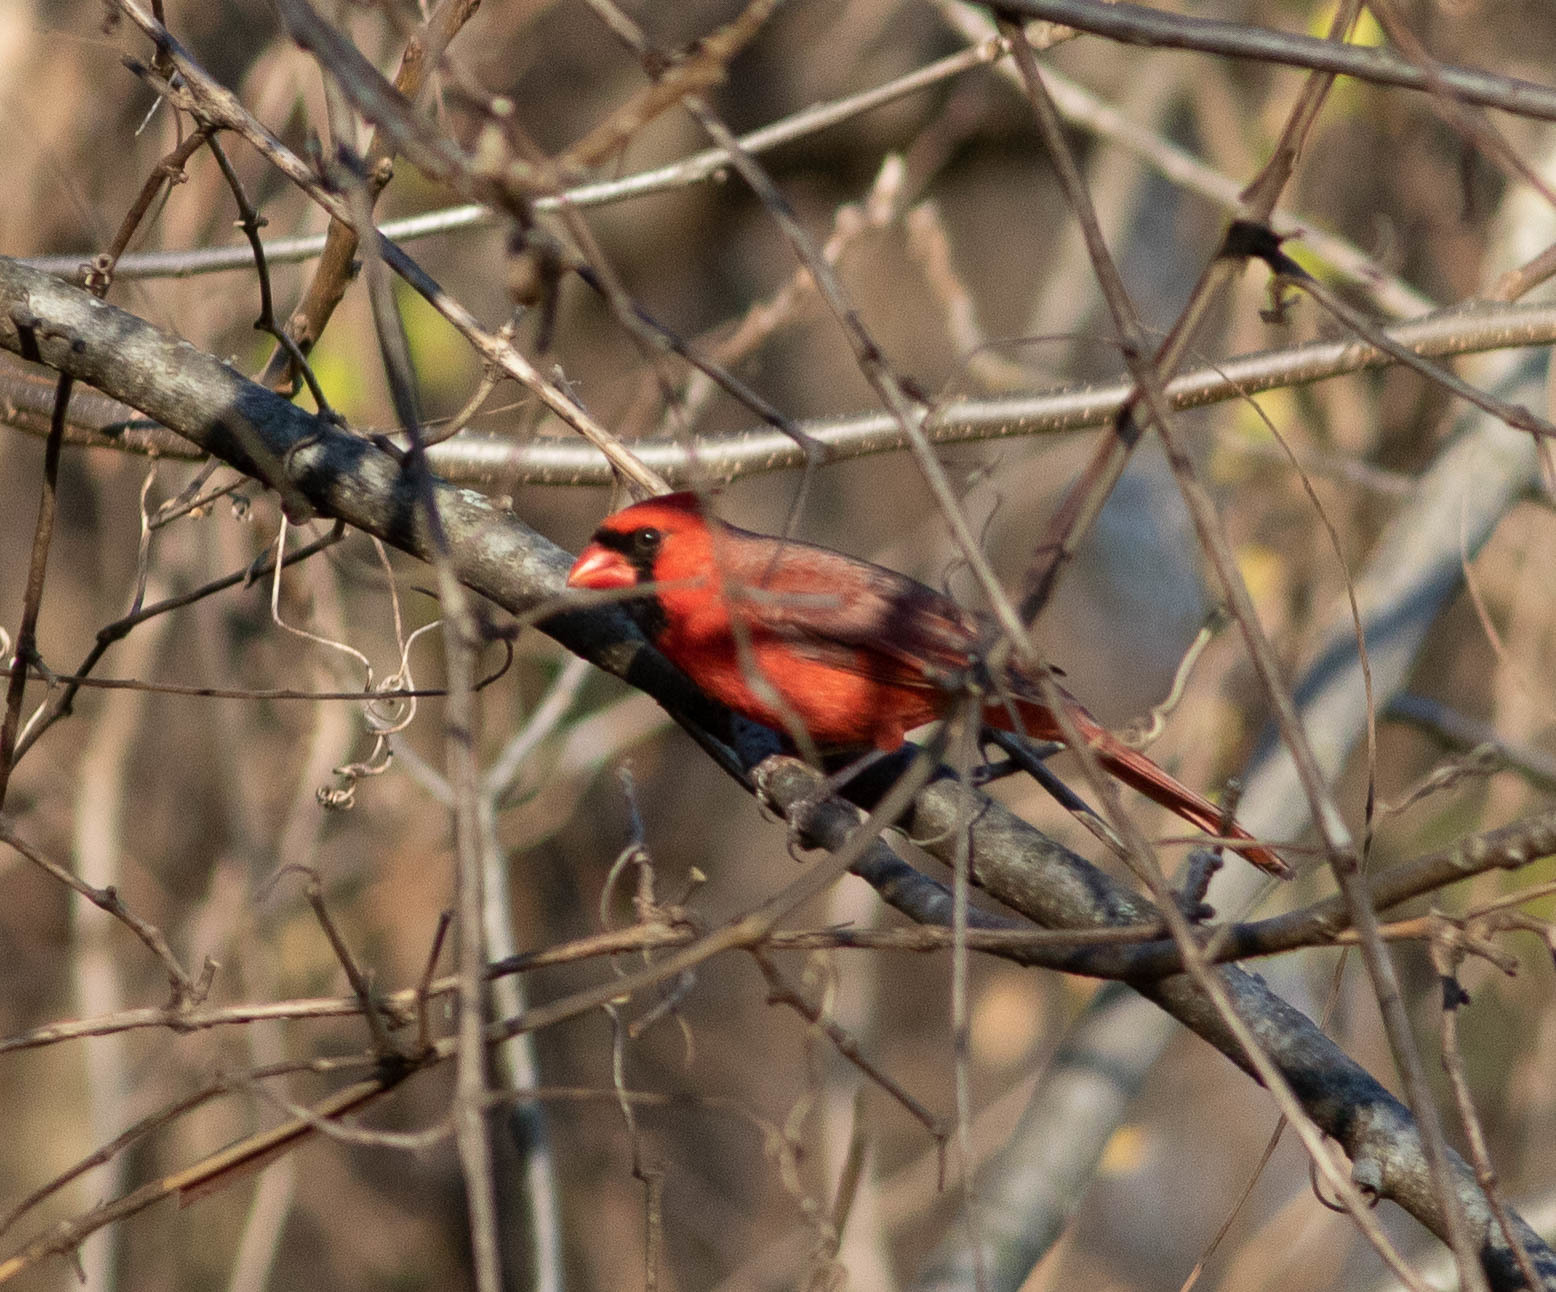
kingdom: Animalia
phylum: Chordata
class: Aves
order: Passeriformes
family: Cardinalidae
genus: Cardinalis
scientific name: Cardinalis cardinalis
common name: Northern cardinal
